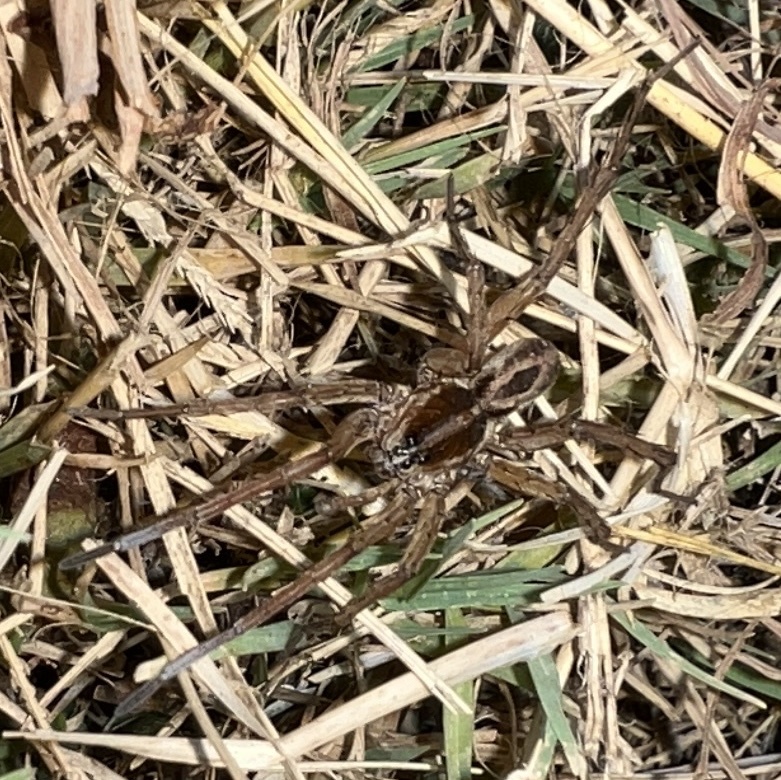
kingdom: Animalia
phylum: Arthropoda
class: Arachnida
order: Araneae
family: Lycosidae
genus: Tigrosa
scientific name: Tigrosa annexa
